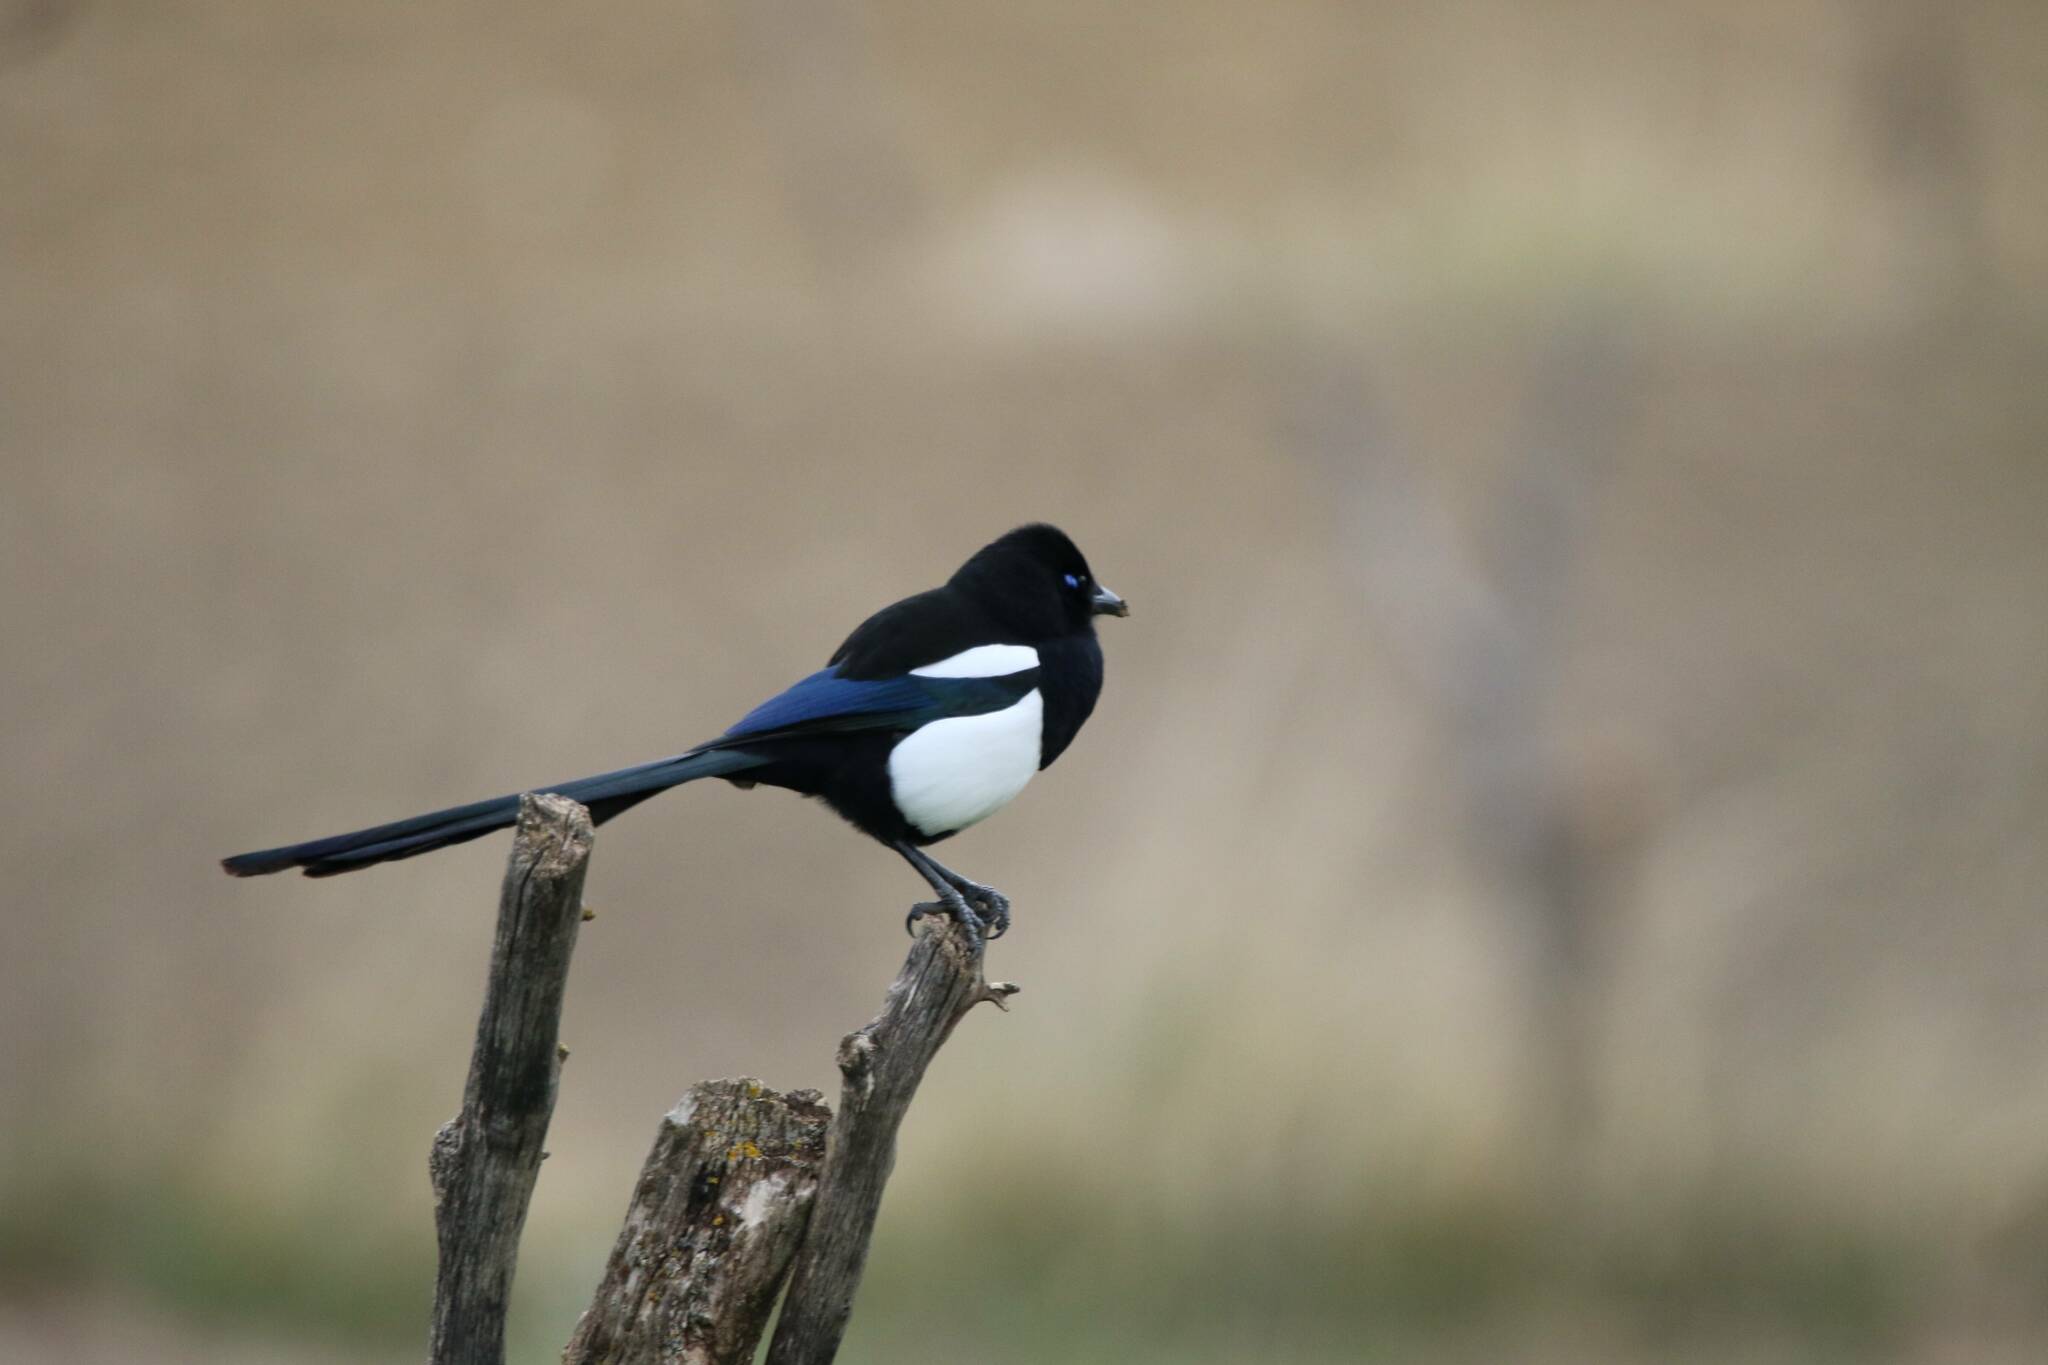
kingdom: Animalia
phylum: Chordata
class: Aves
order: Passeriformes
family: Corvidae
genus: Pica
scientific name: Pica mauritanica
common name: Maghreb magpie
